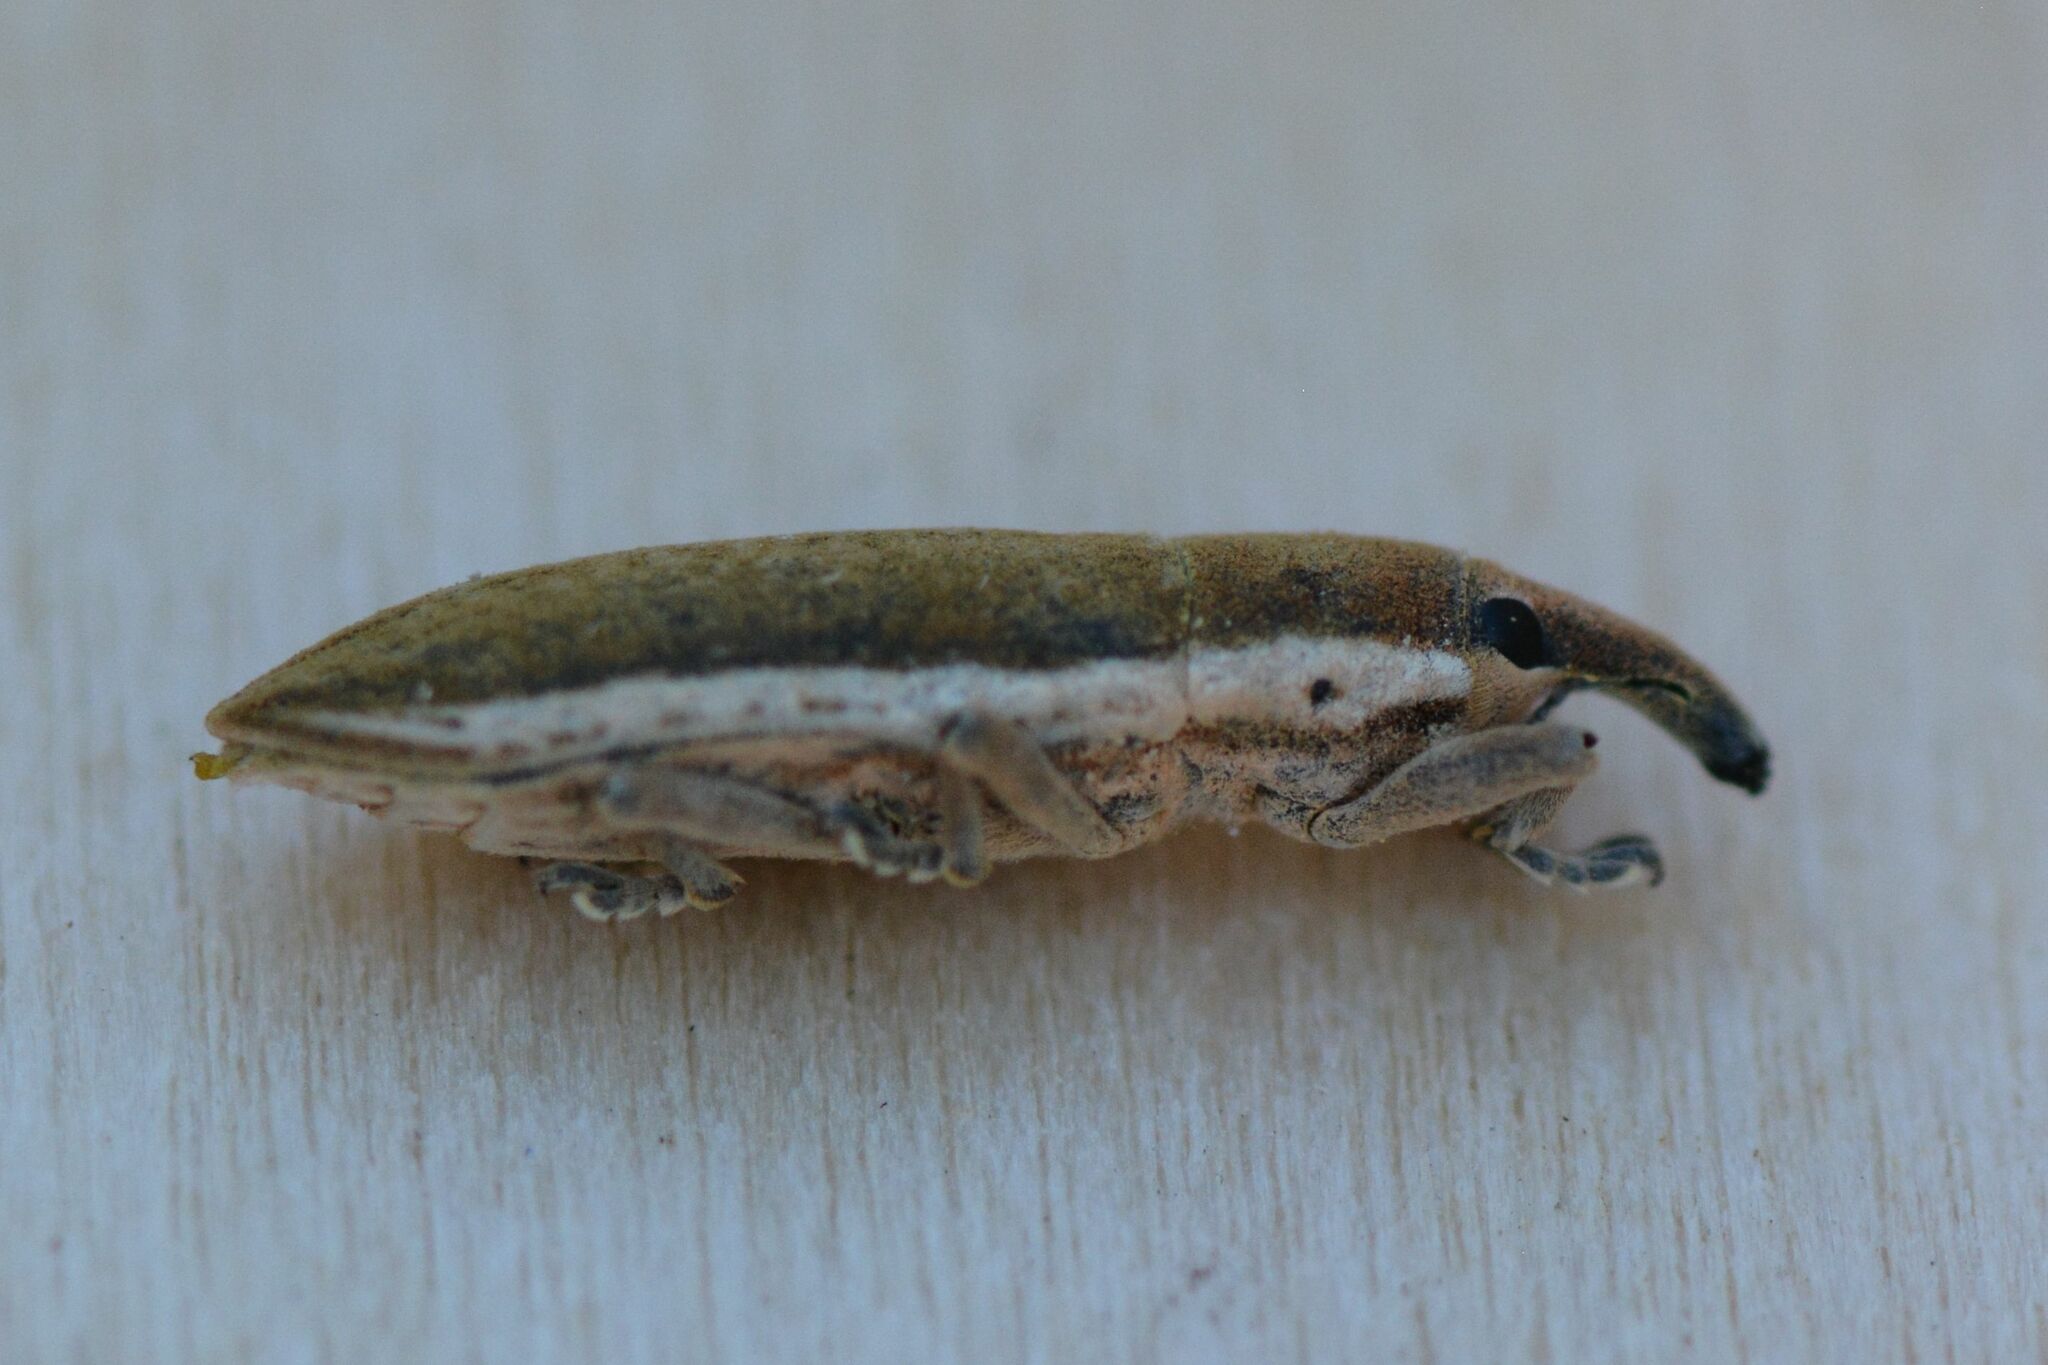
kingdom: Animalia
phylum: Arthropoda
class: Insecta
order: Coleoptera
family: Curculionidae
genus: Lixus
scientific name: Lixus juncii
